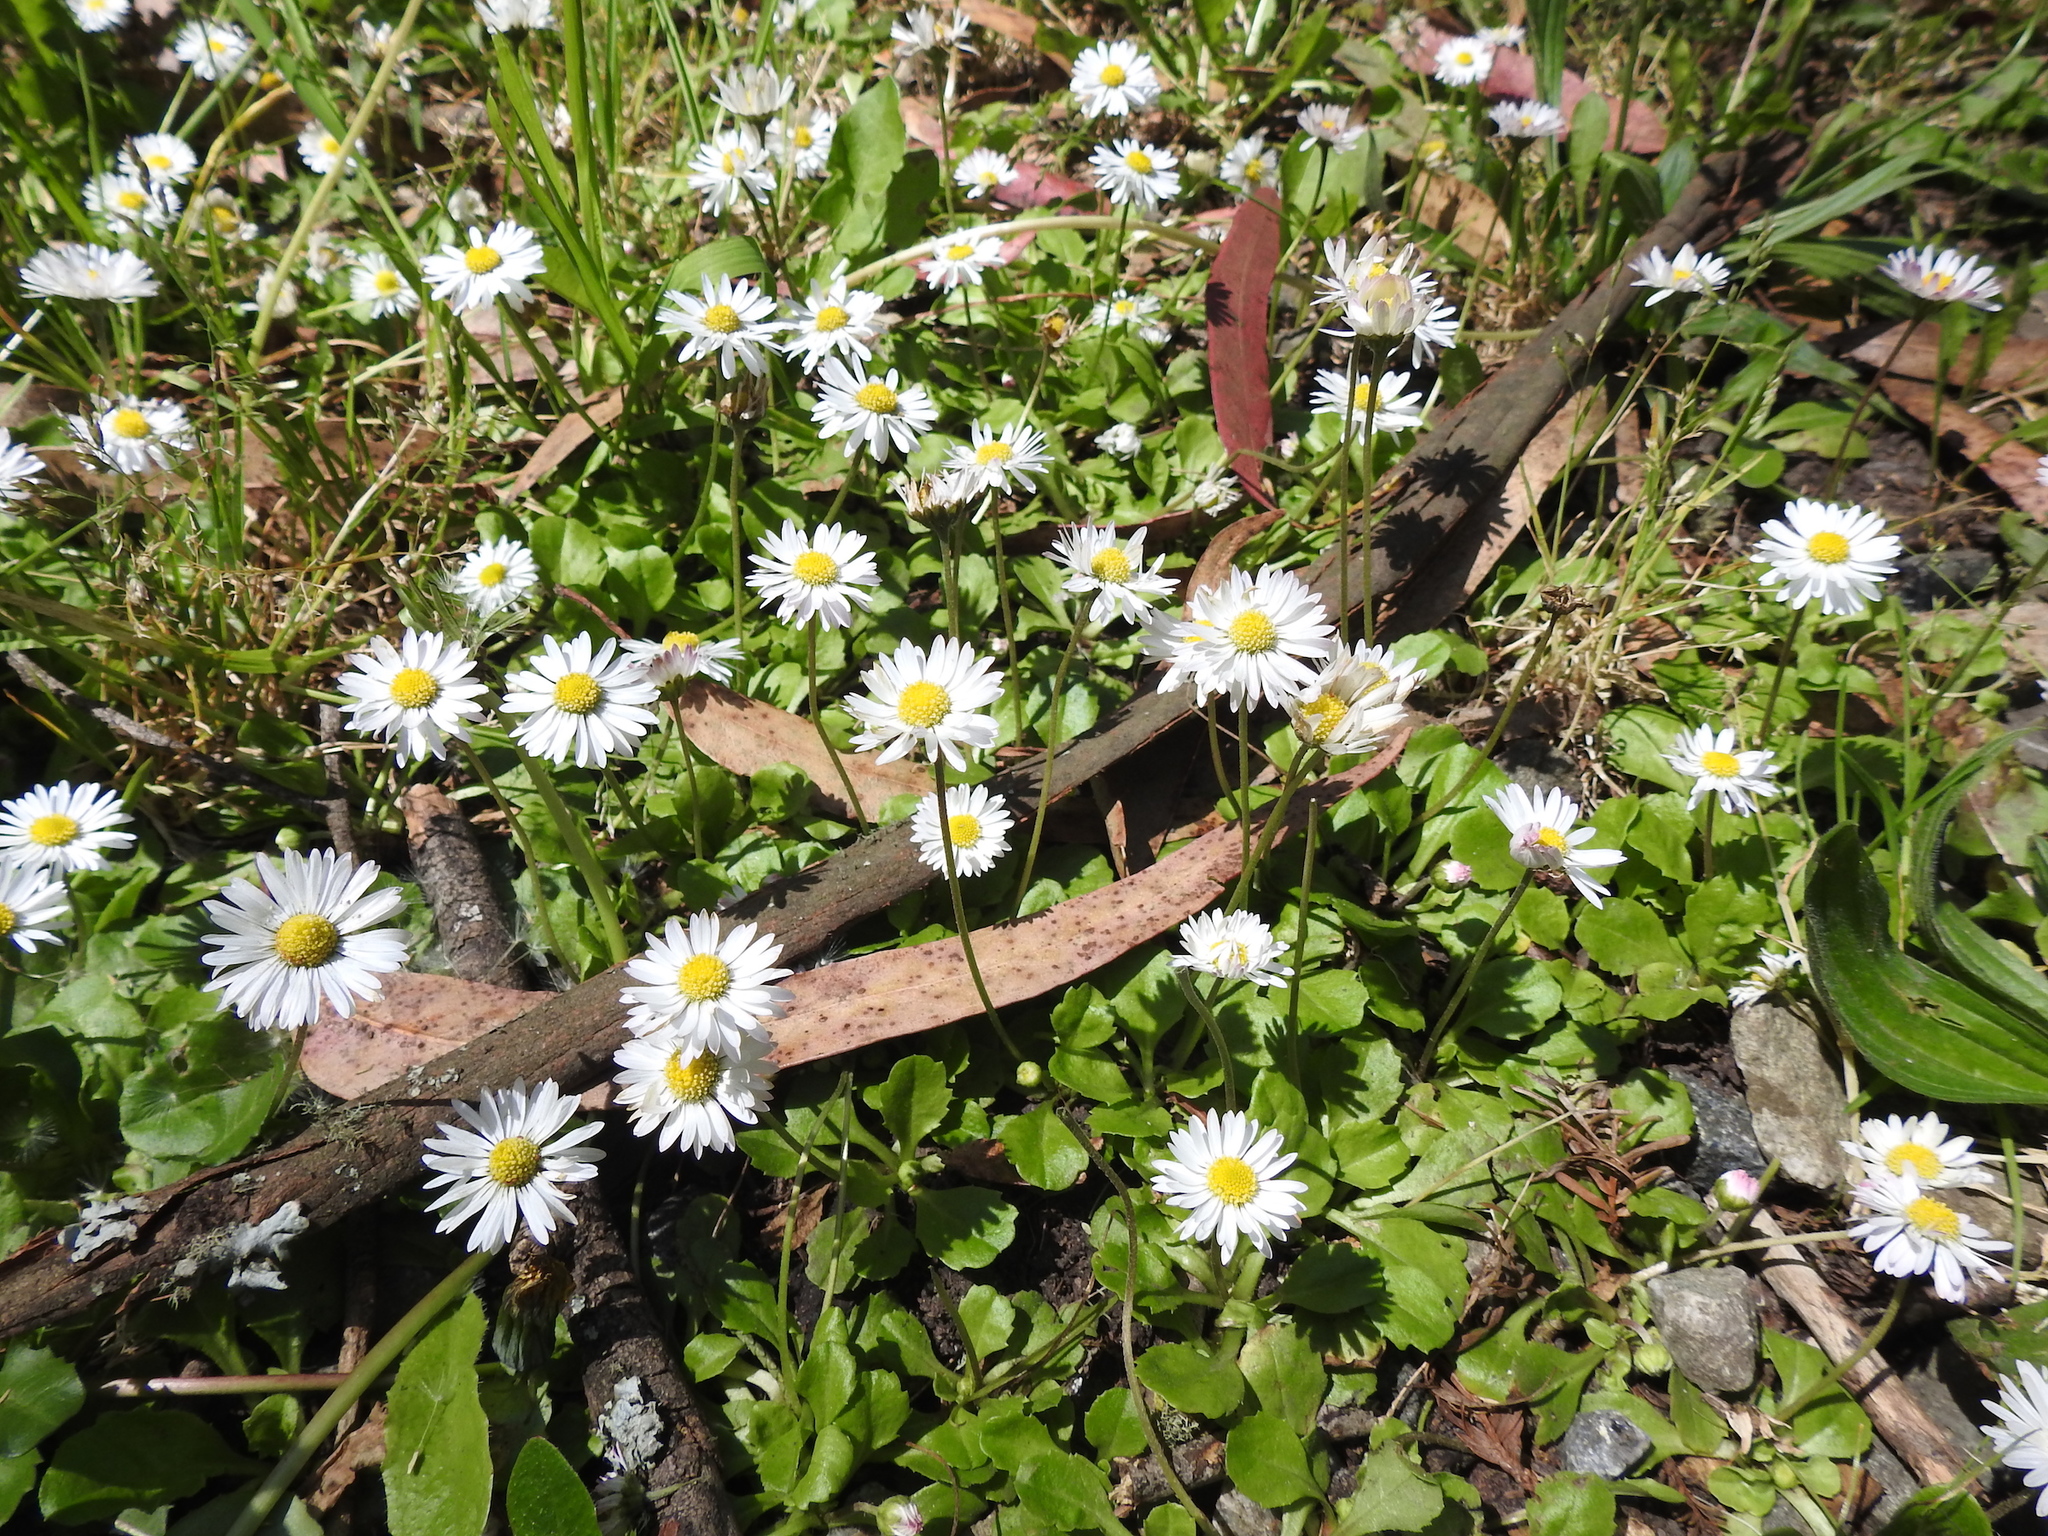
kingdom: Plantae
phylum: Tracheophyta
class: Magnoliopsida
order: Asterales
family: Asteraceae
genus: Bellis
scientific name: Bellis perennis
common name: Lawndaisy
